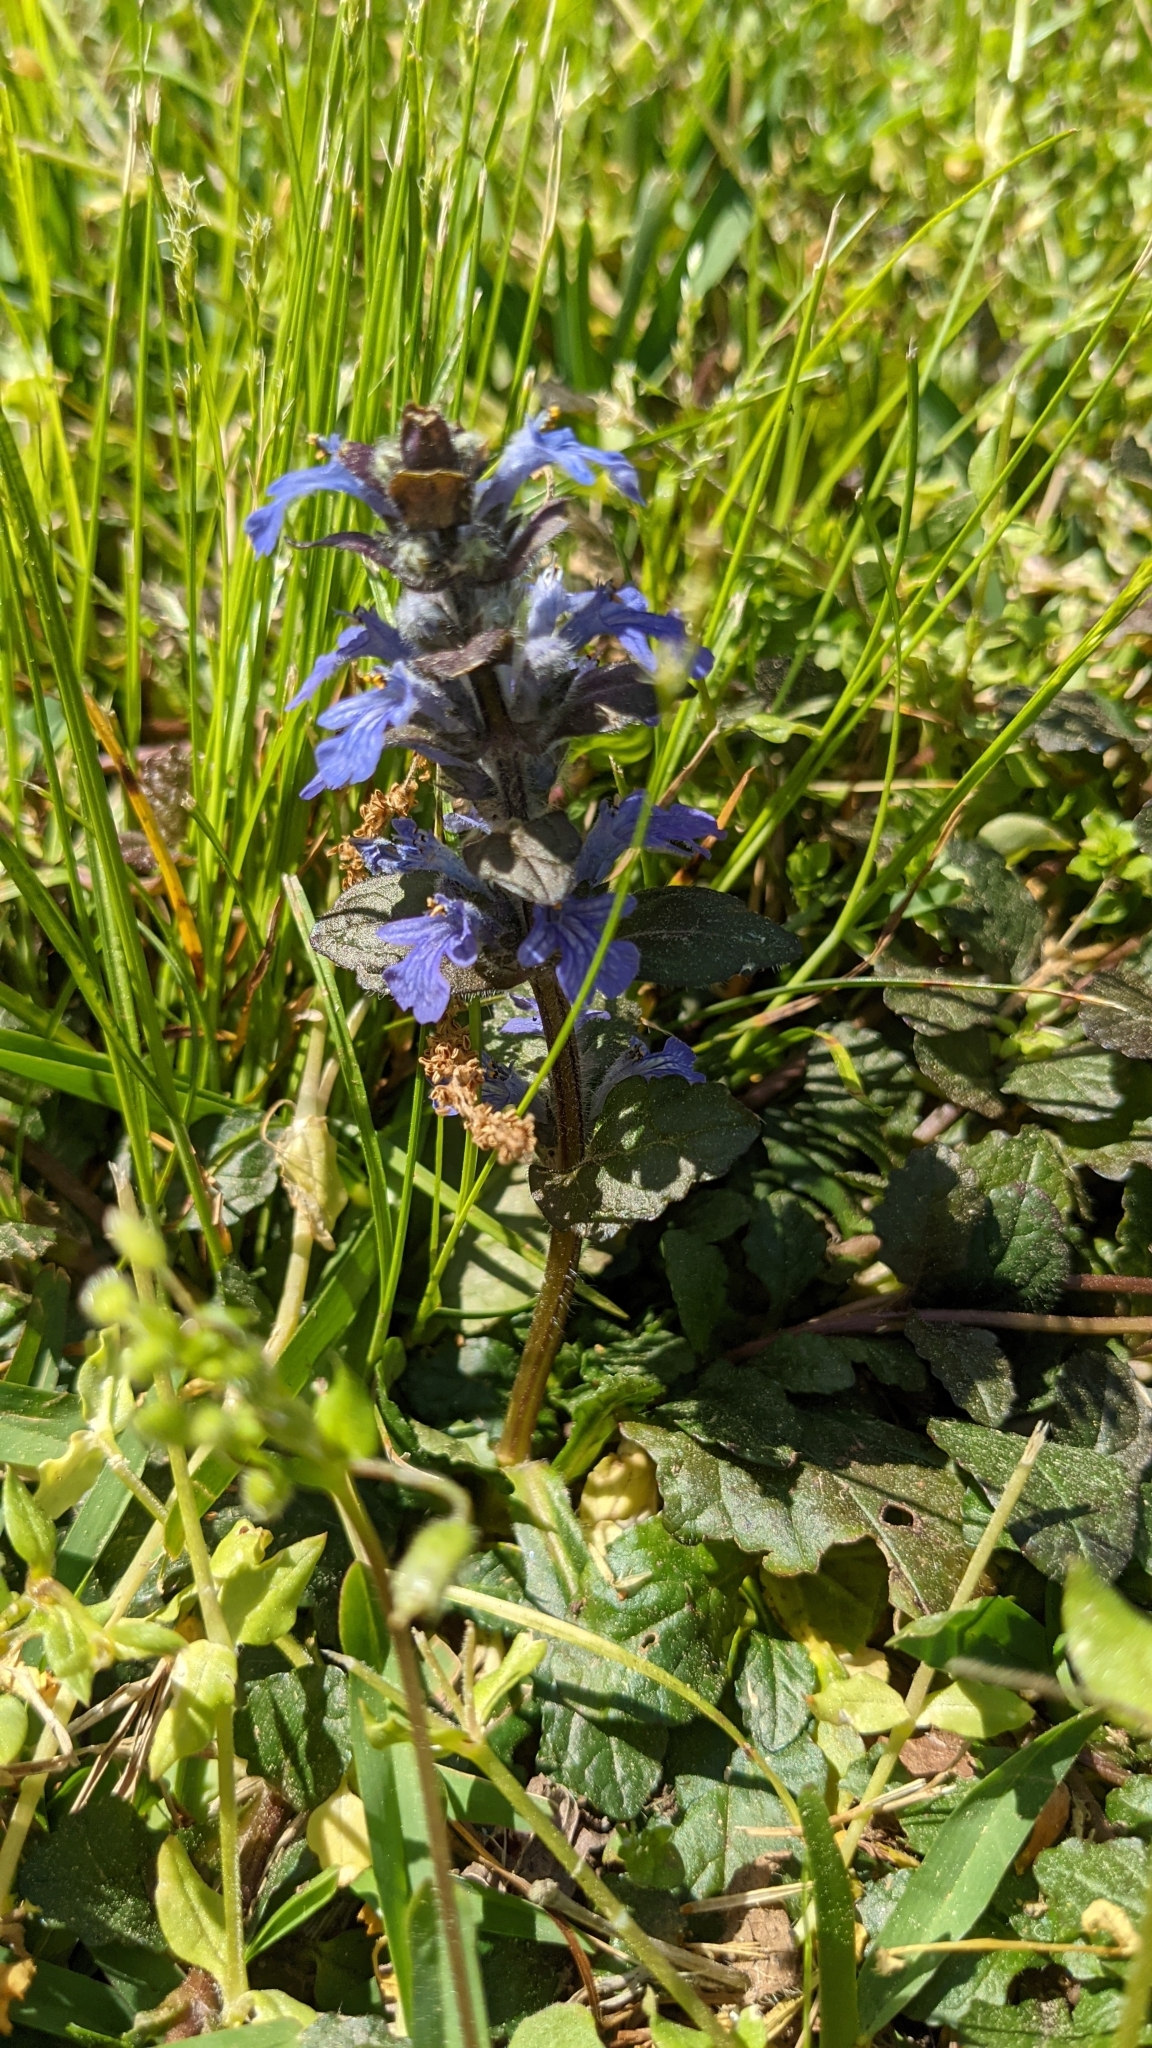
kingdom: Plantae
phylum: Tracheophyta
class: Magnoliopsida
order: Lamiales
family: Lamiaceae
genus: Ajuga
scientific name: Ajuga reptans
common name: Bugle
